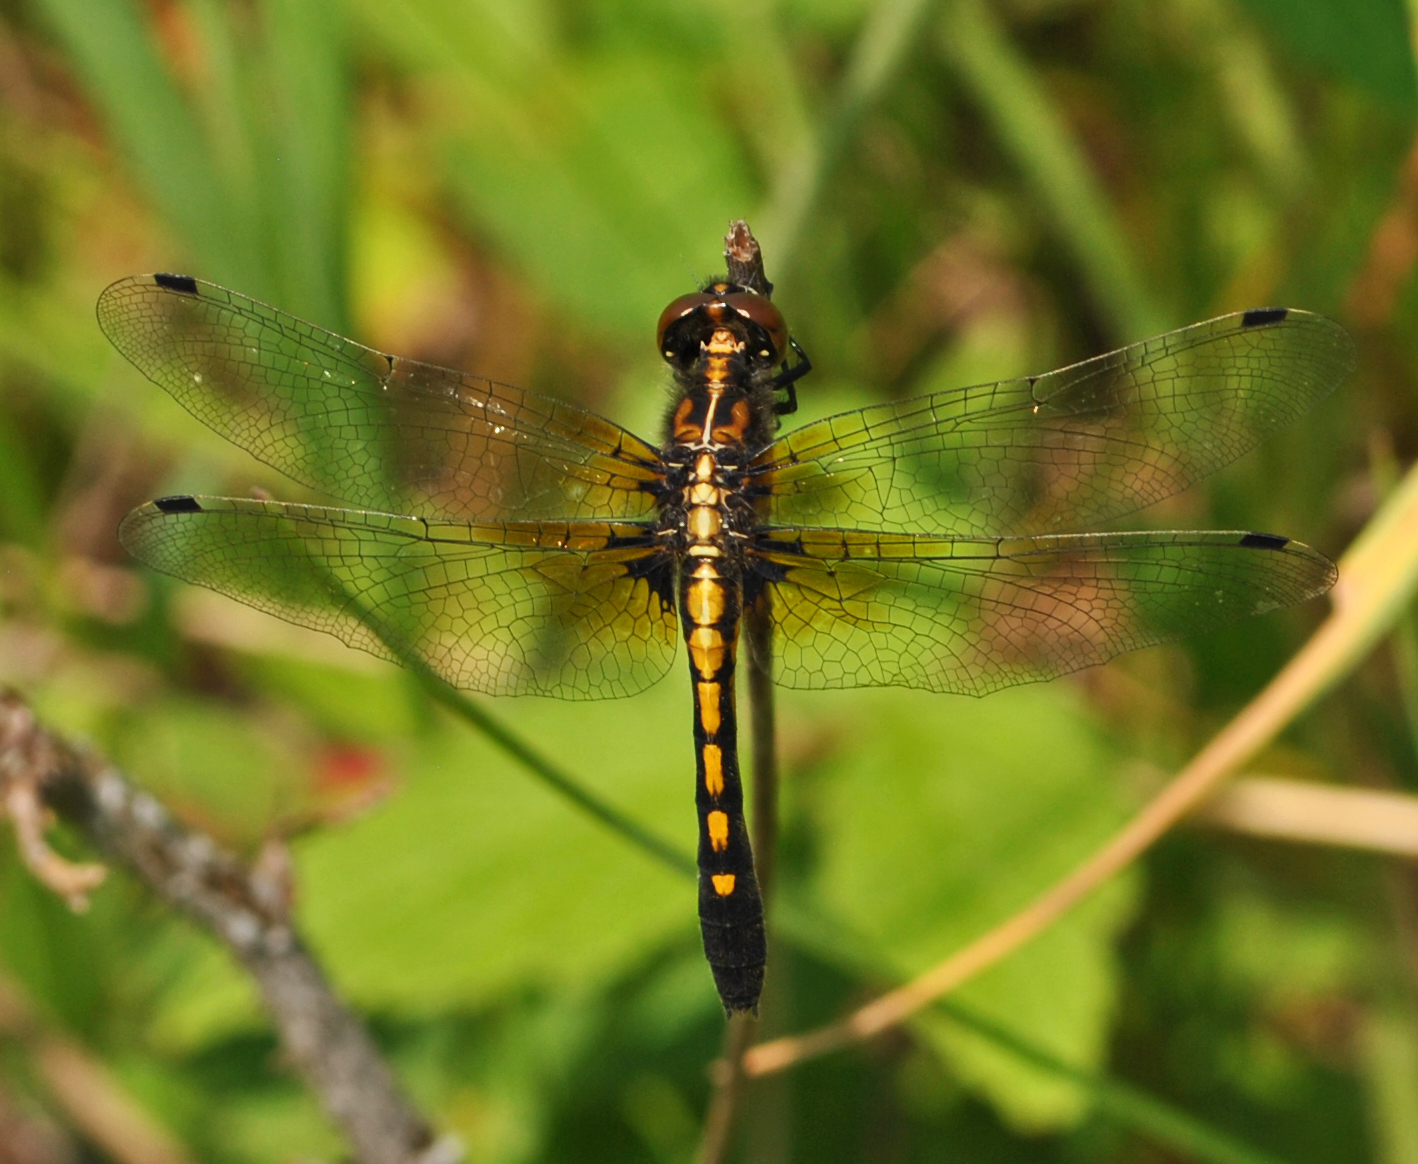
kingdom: Animalia
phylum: Arthropoda
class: Insecta
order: Odonata
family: Libellulidae
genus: Leucorrhinia
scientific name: Leucorrhinia intacta
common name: Dot-tailed whiteface
